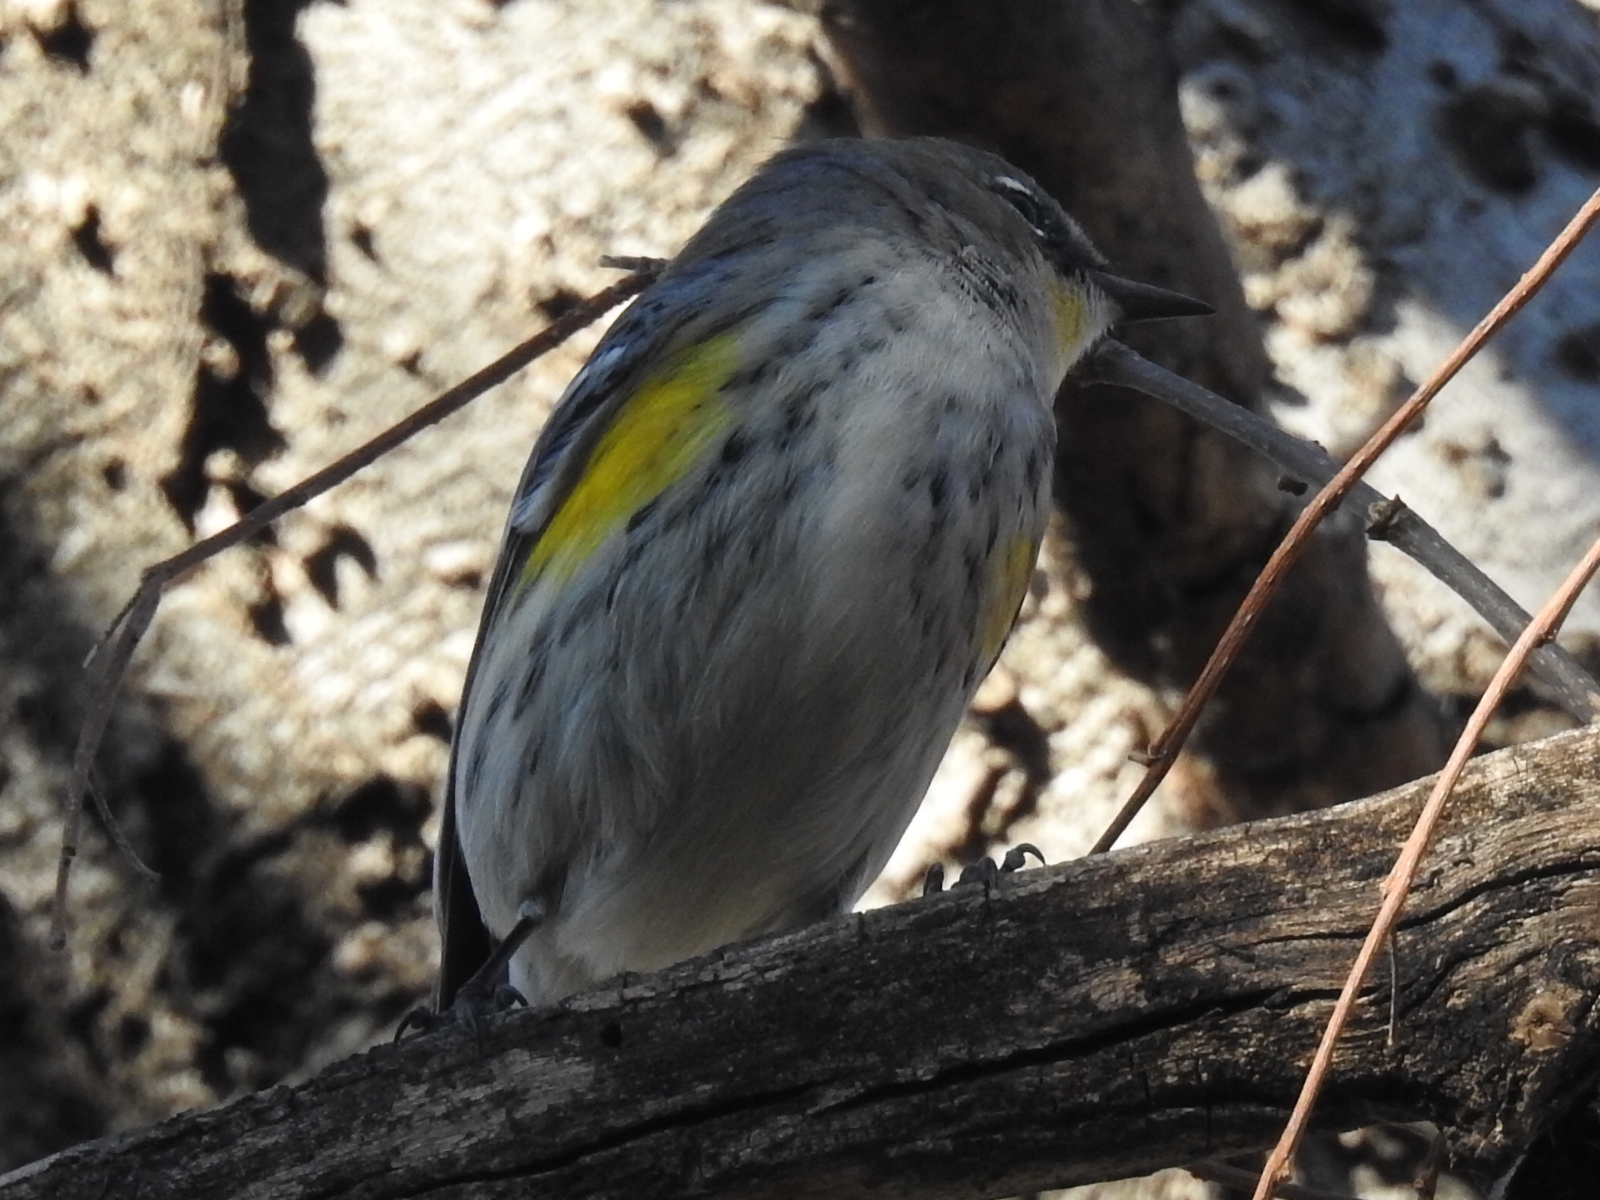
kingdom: Animalia
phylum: Chordata
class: Aves
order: Passeriformes
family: Parulidae
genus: Setophaga
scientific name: Setophaga coronata
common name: Myrtle warbler
